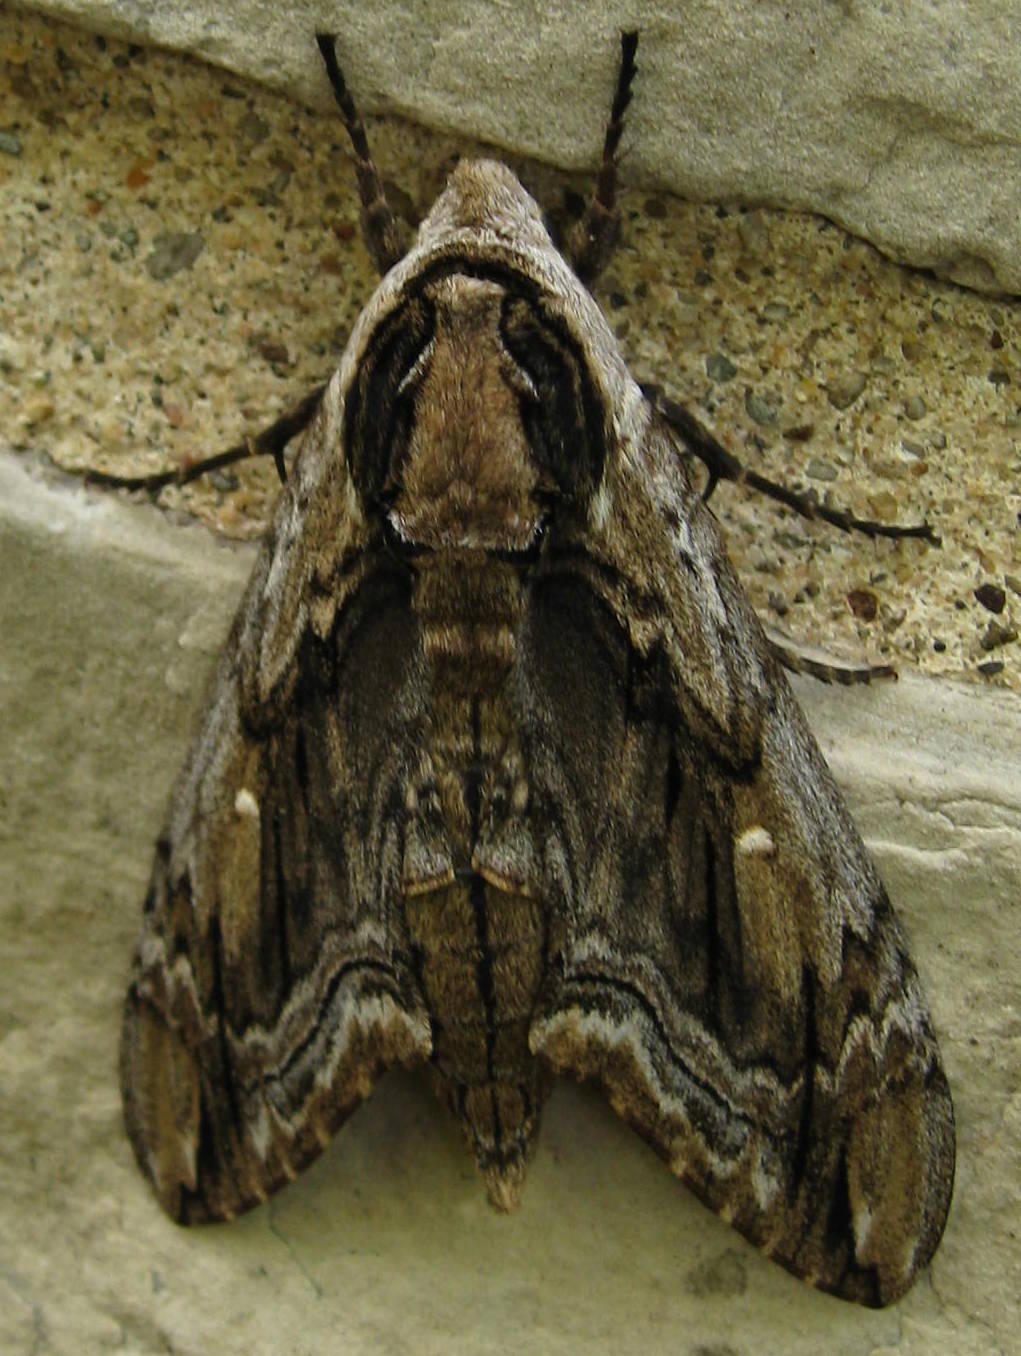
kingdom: Animalia
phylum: Arthropoda
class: Insecta
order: Lepidoptera
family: Sphingidae
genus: Ceratomia
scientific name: Ceratomia amyntor
